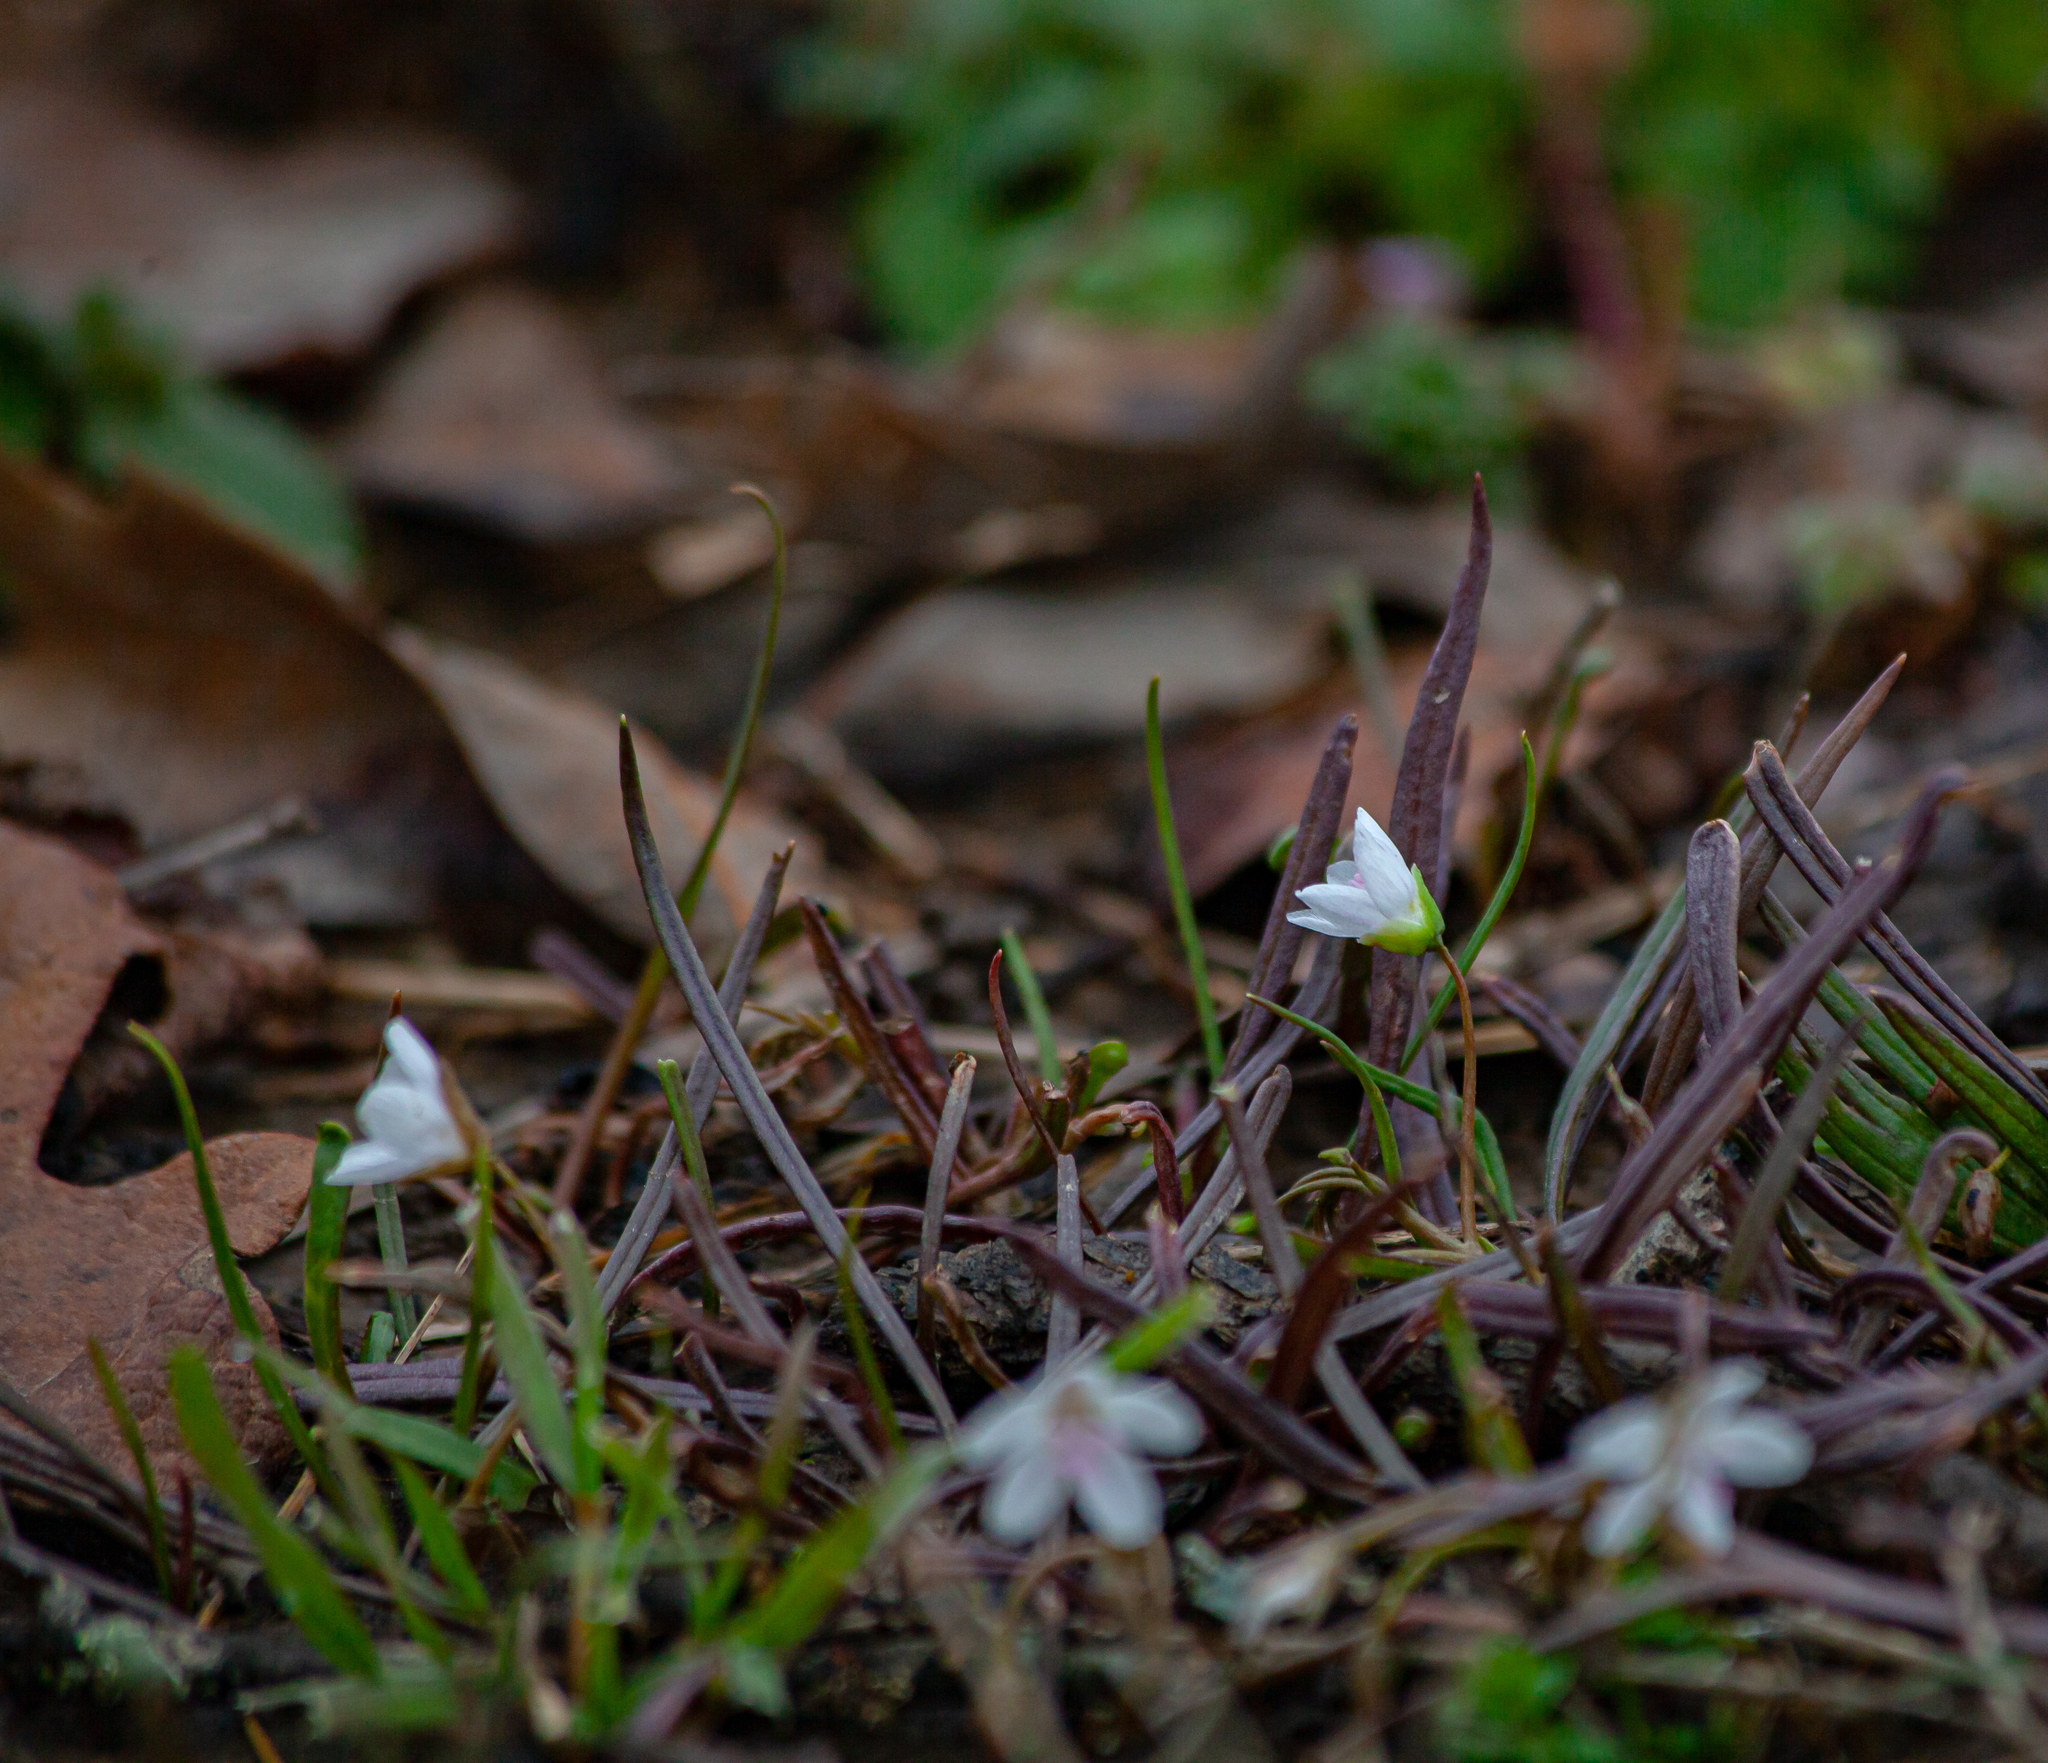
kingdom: Plantae
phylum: Tracheophyta
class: Magnoliopsida
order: Caryophyllales
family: Montiaceae
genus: Claytonia
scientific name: Claytonia virginica
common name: Virginia springbeauty
